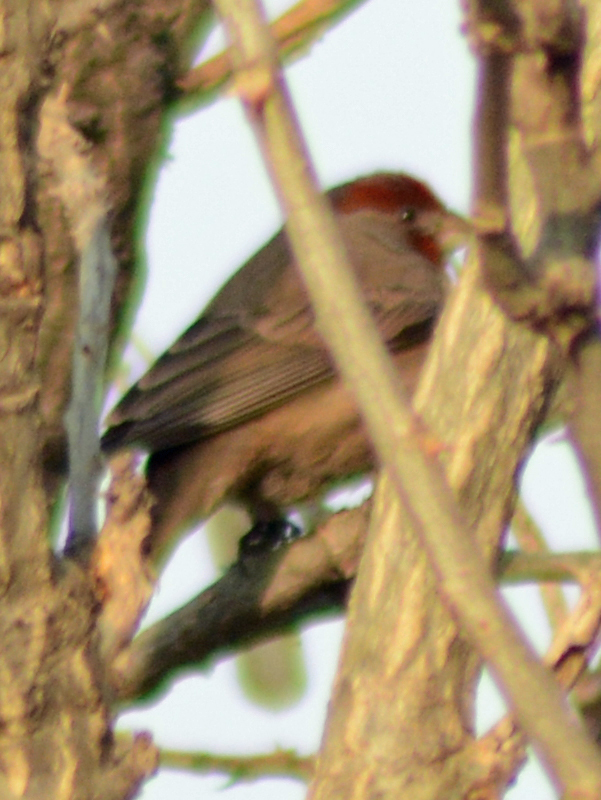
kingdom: Animalia
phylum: Chordata
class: Aves
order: Passeriformes
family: Fringillidae
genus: Haemorhous
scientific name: Haemorhous mexicanus
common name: House finch
